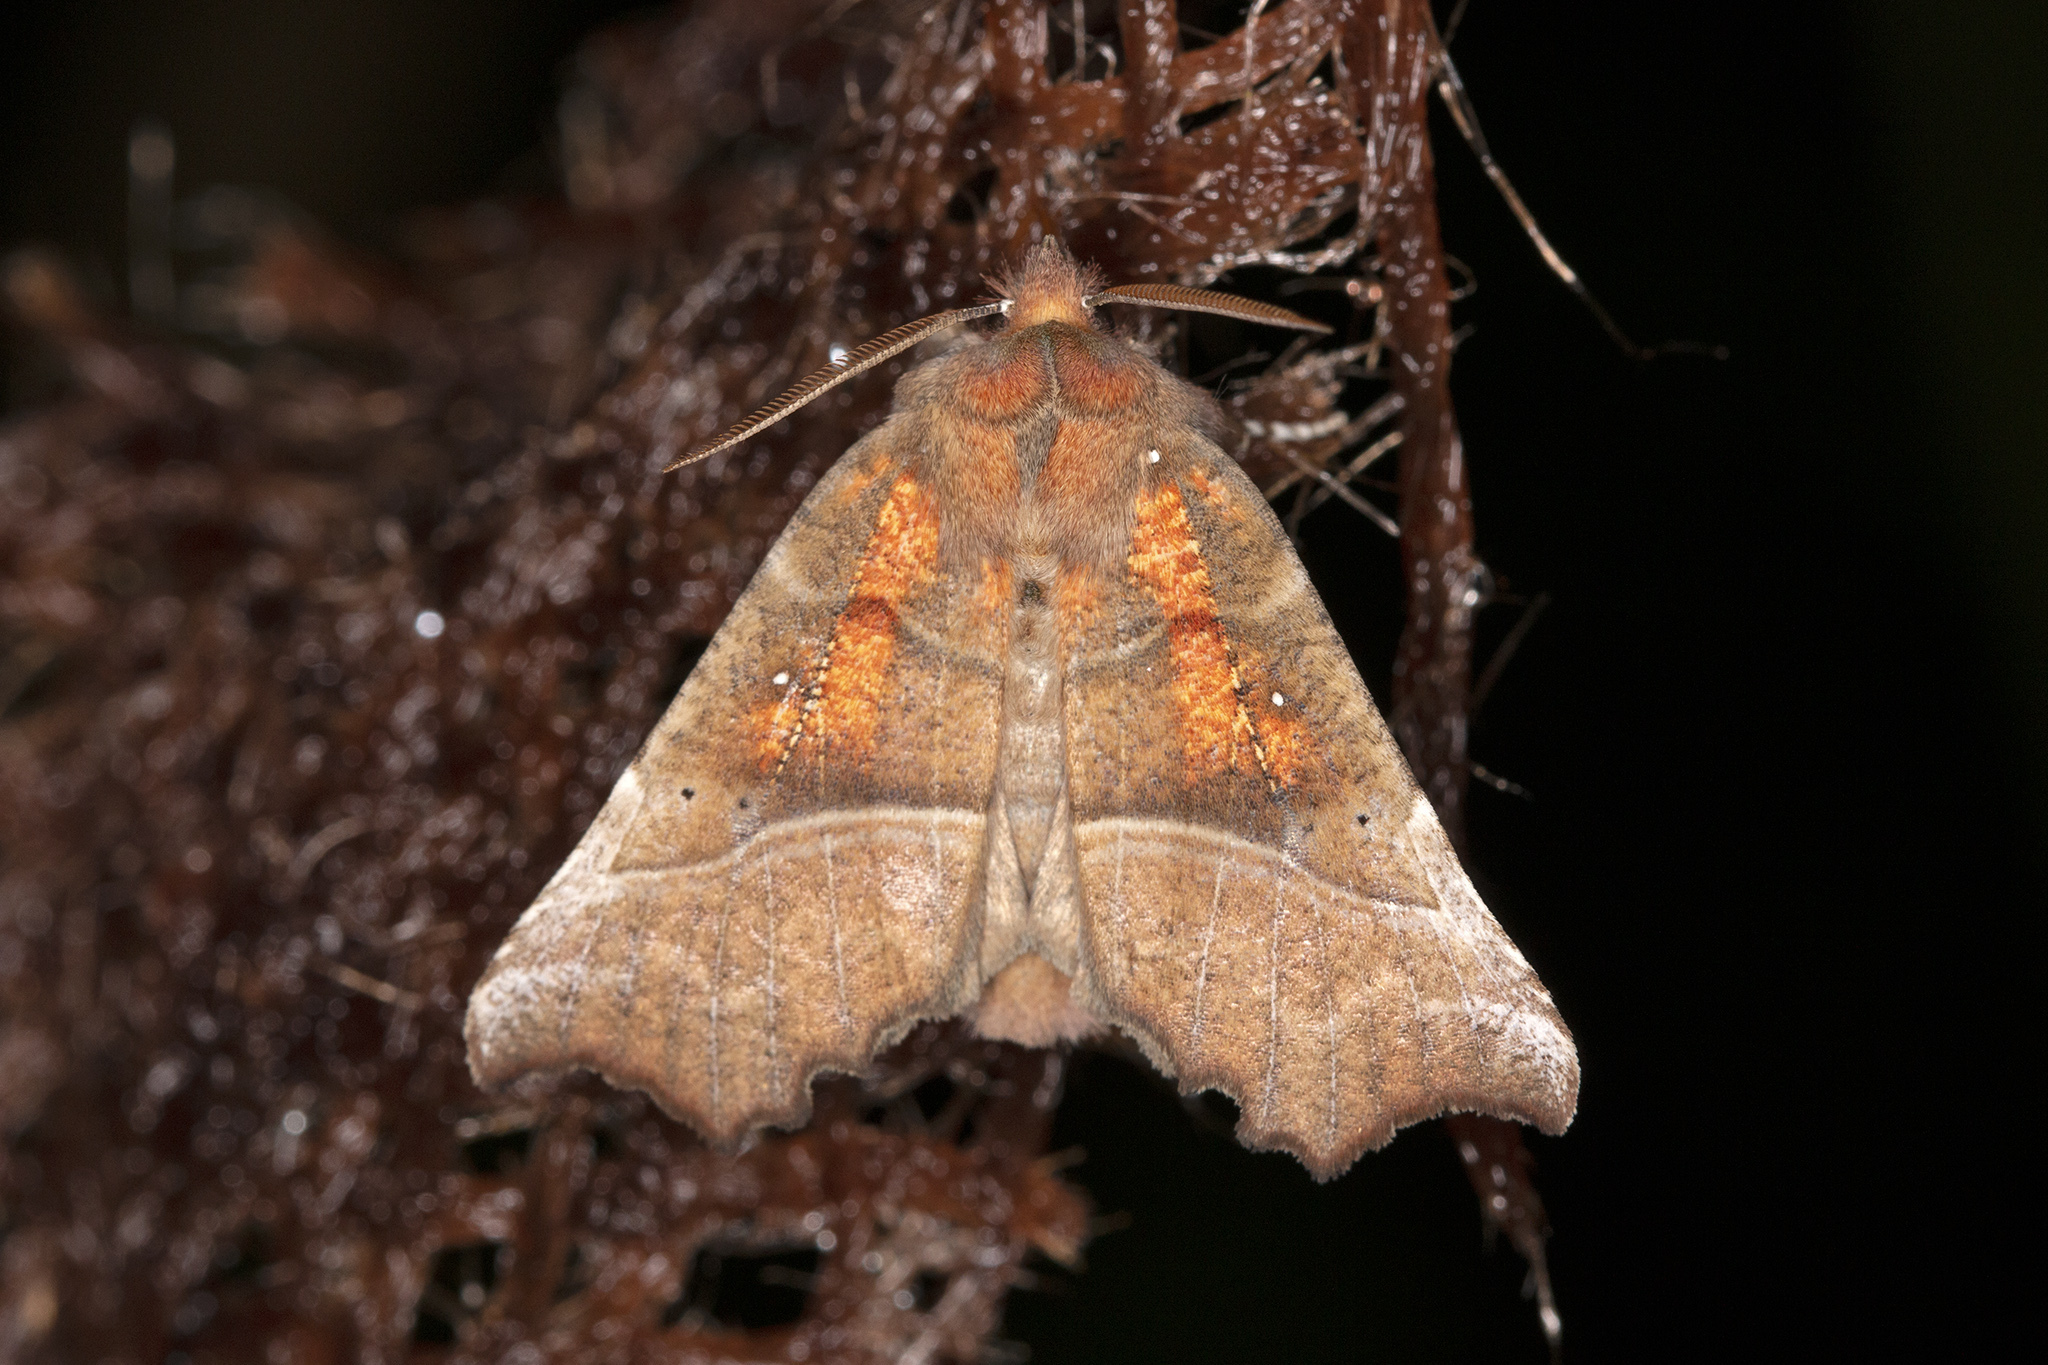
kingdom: Animalia
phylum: Arthropoda
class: Insecta
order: Lepidoptera
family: Erebidae
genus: Scoliopteryx
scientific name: Scoliopteryx libatrix
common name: Herald
